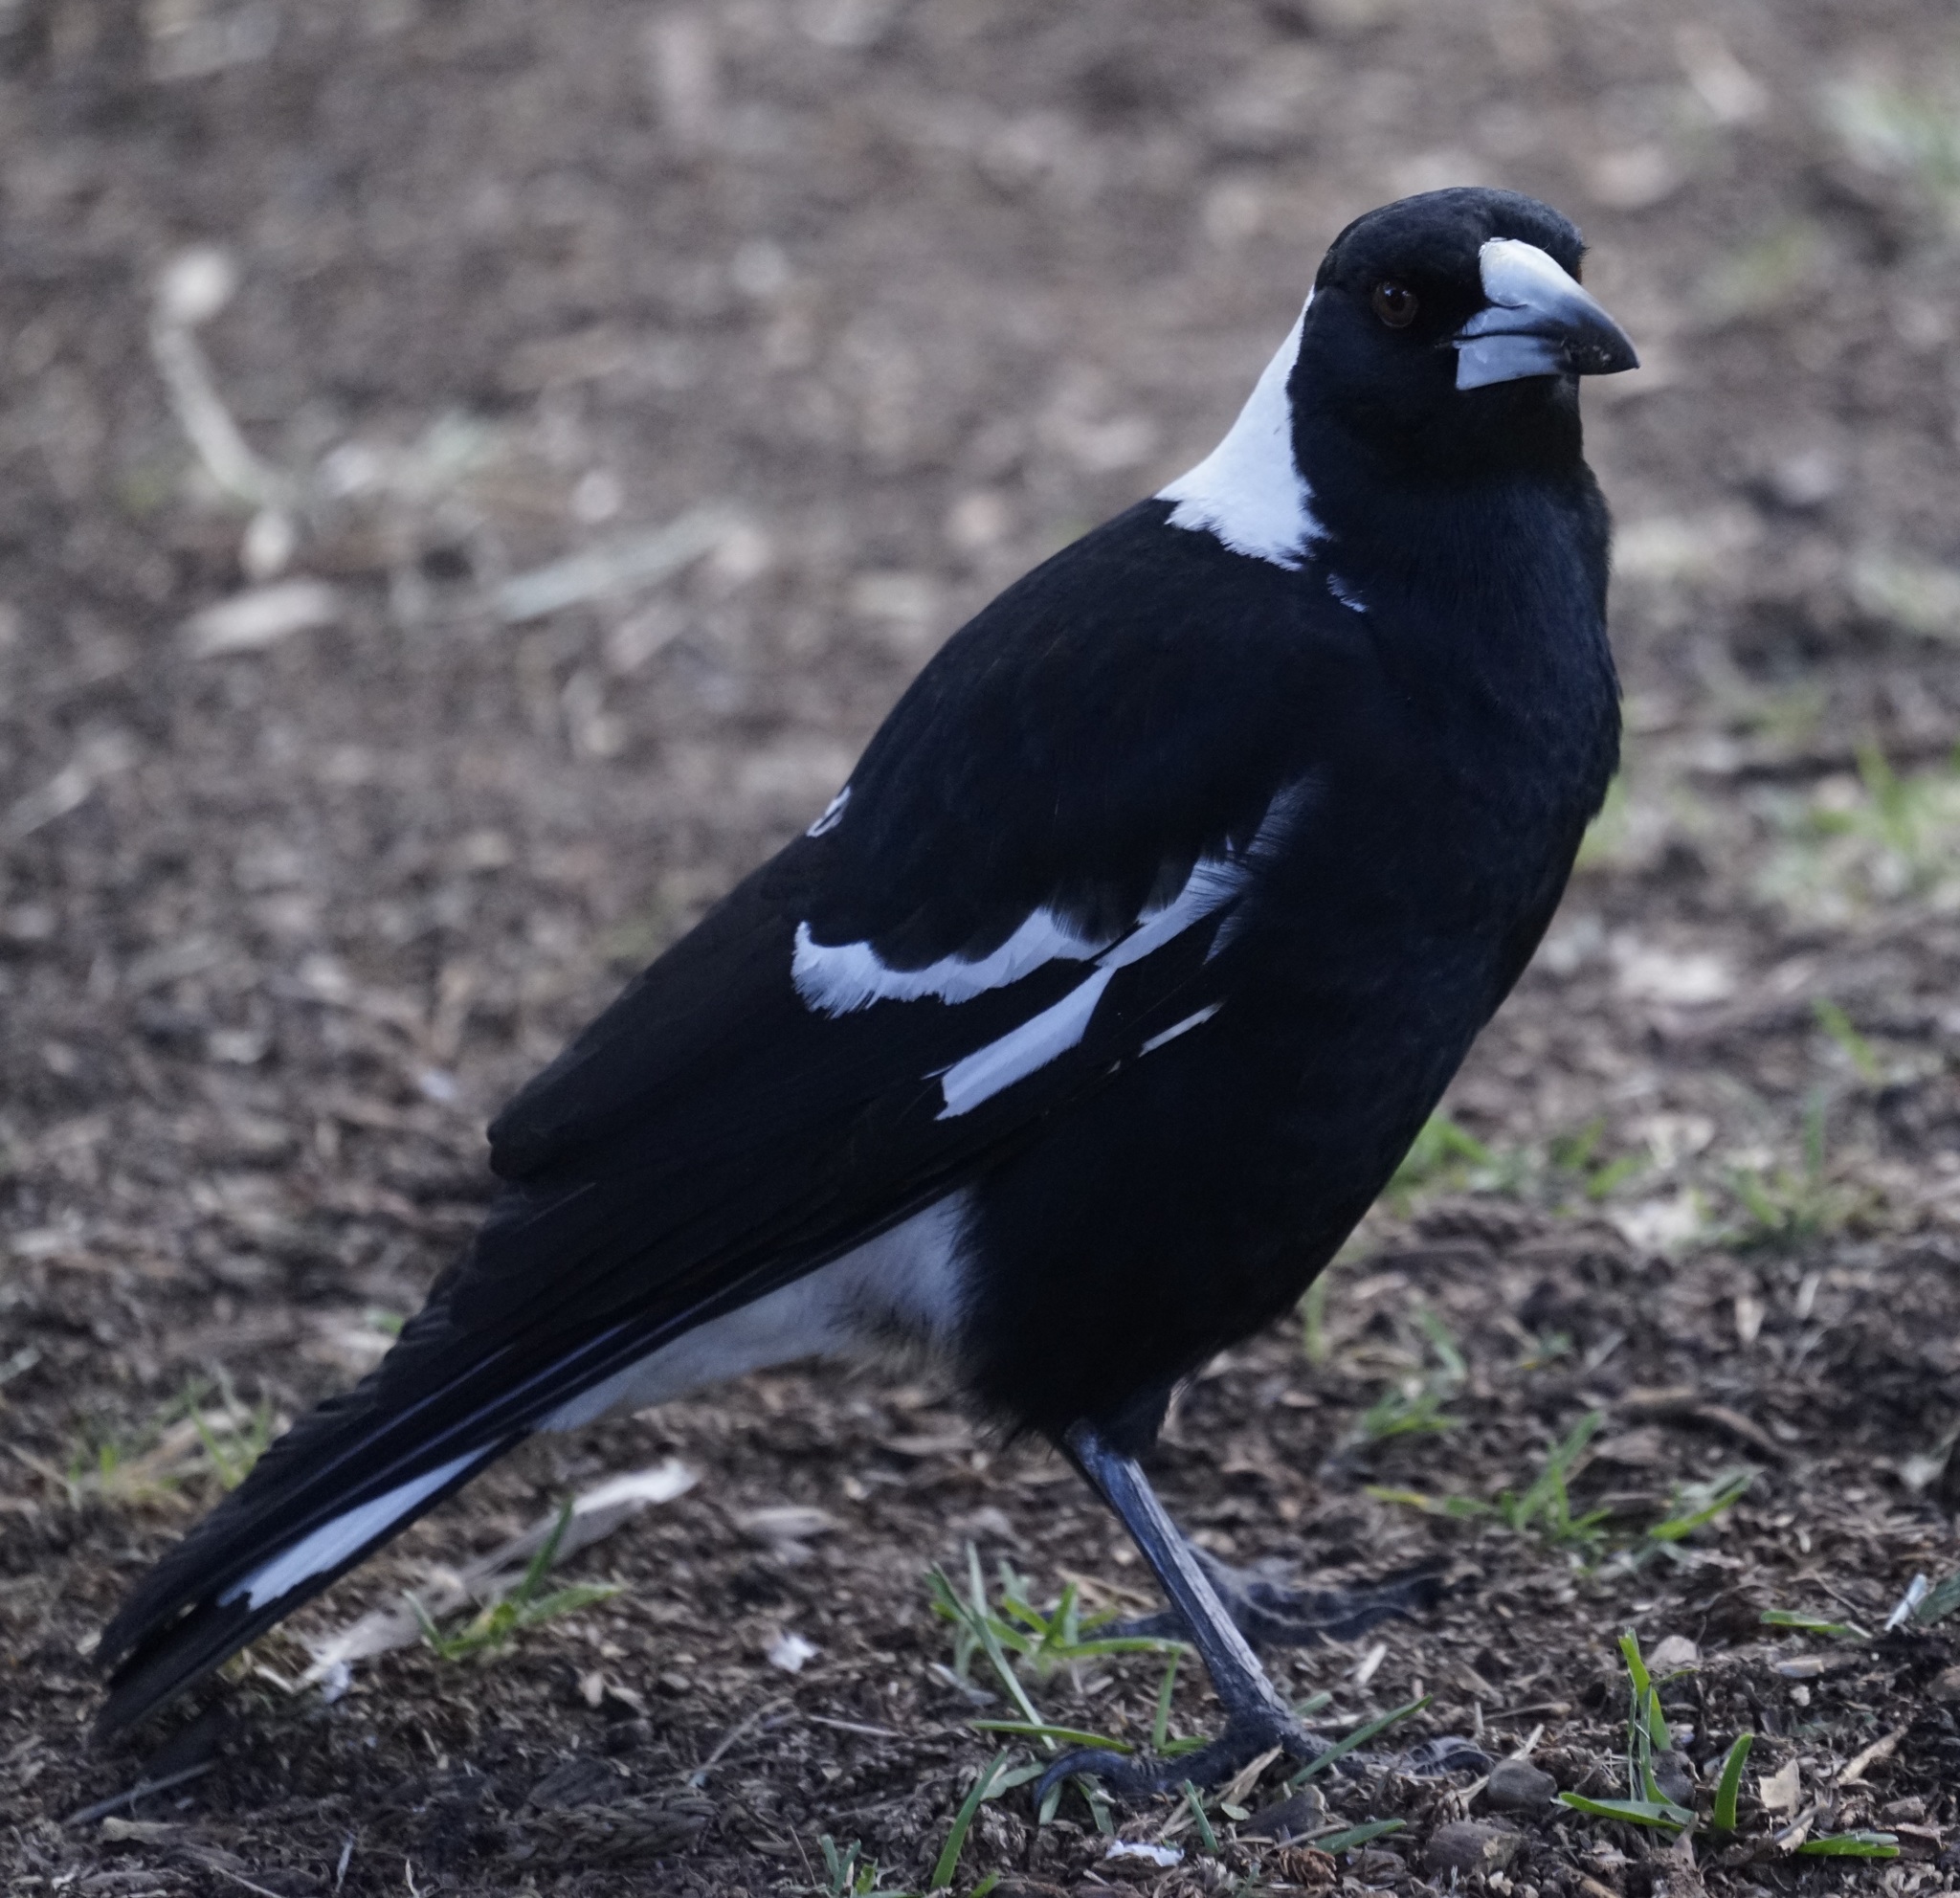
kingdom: Animalia
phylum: Chordata
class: Aves
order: Passeriformes
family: Cracticidae
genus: Gymnorhina
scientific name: Gymnorhina tibicen
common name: Australian magpie
